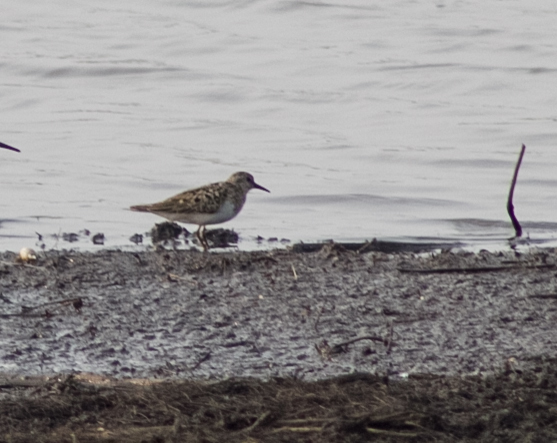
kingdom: Animalia
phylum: Chordata
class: Aves
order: Charadriiformes
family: Scolopacidae
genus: Calidris
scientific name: Calidris temminckii
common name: Temminck's stint
